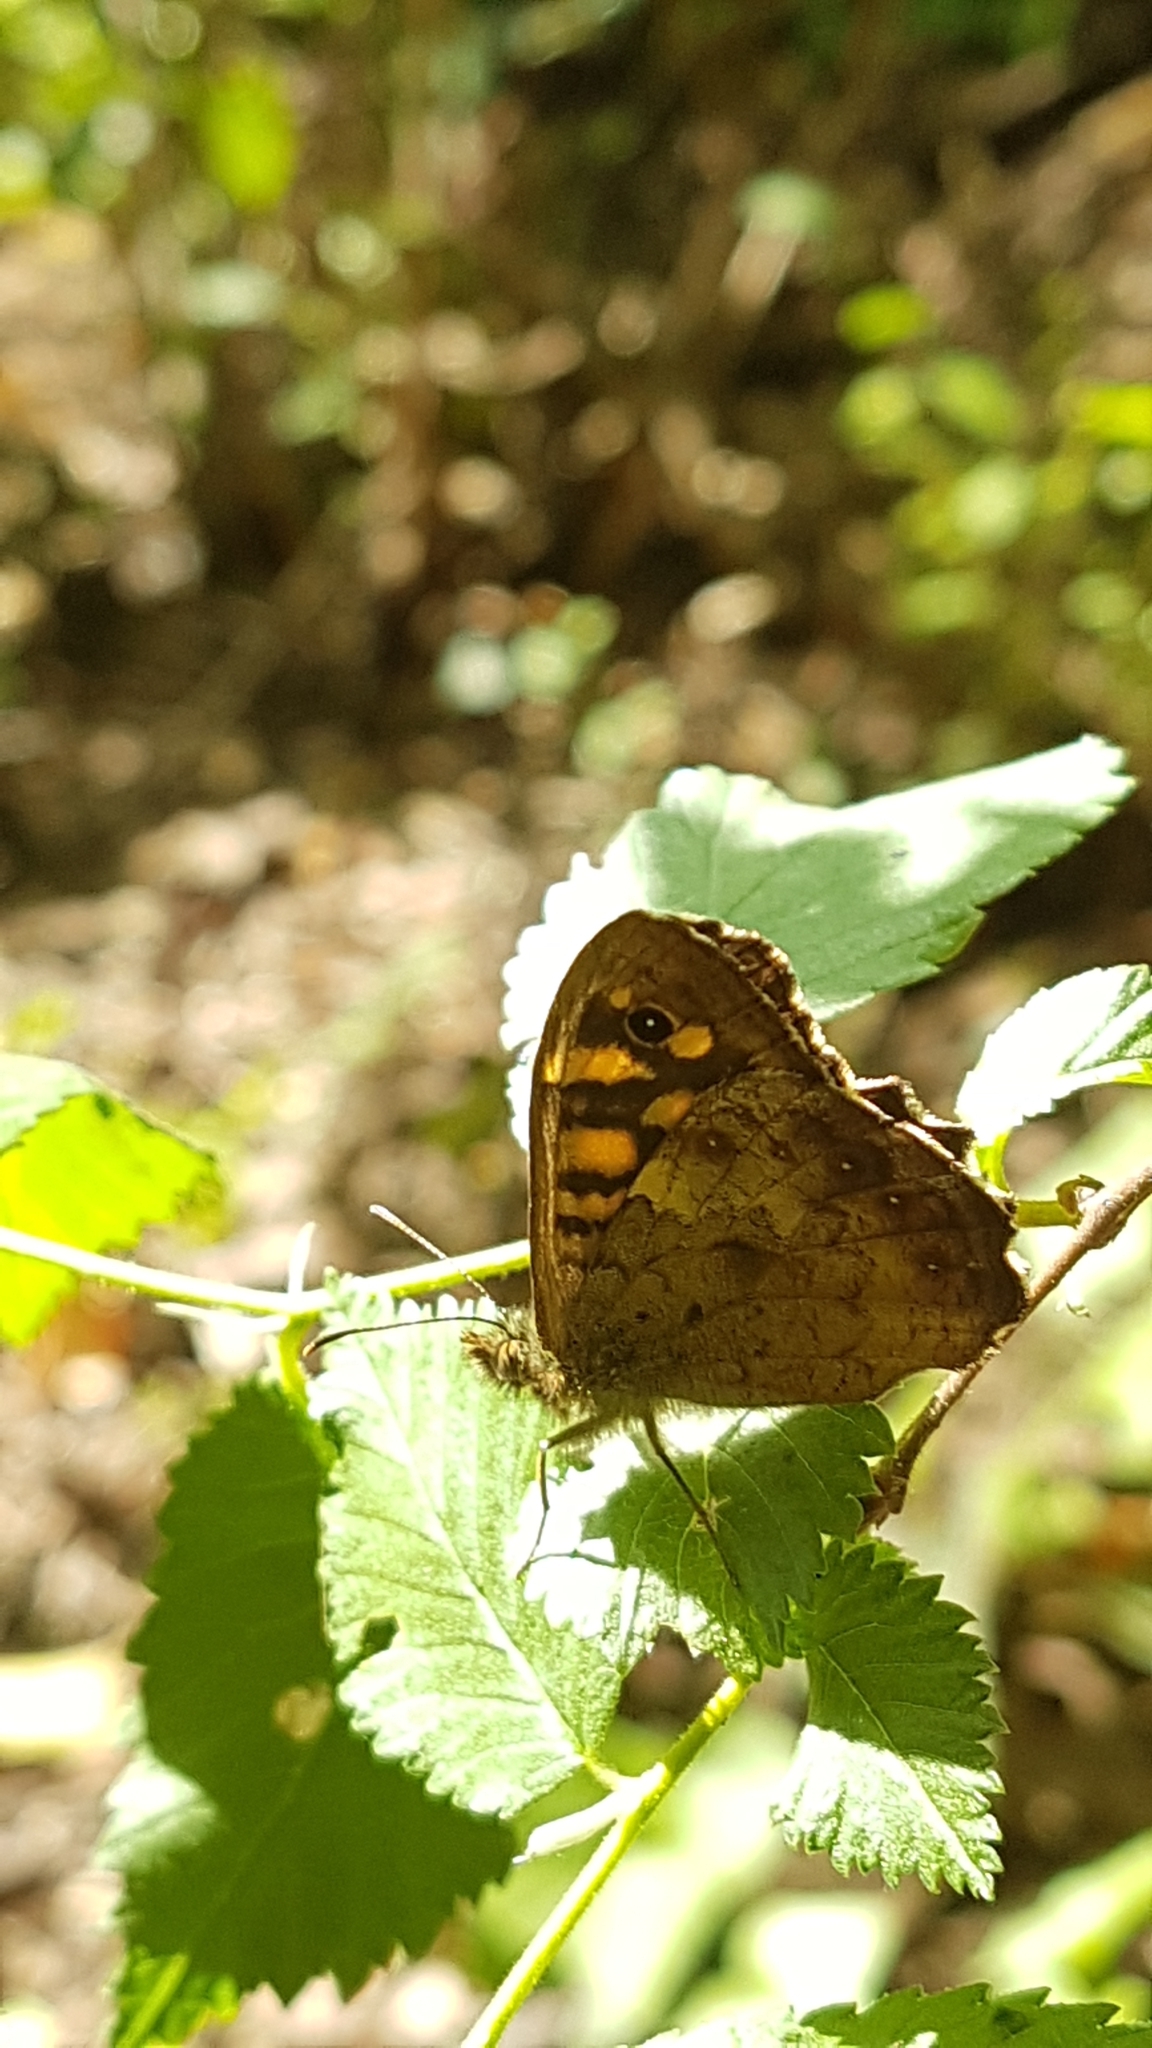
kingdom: Animalia
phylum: Arthropoda
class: Insecta
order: Lepidoptera
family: Nymphalidae
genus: Pararge
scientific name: Pararge aegeria
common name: Speckled wood
